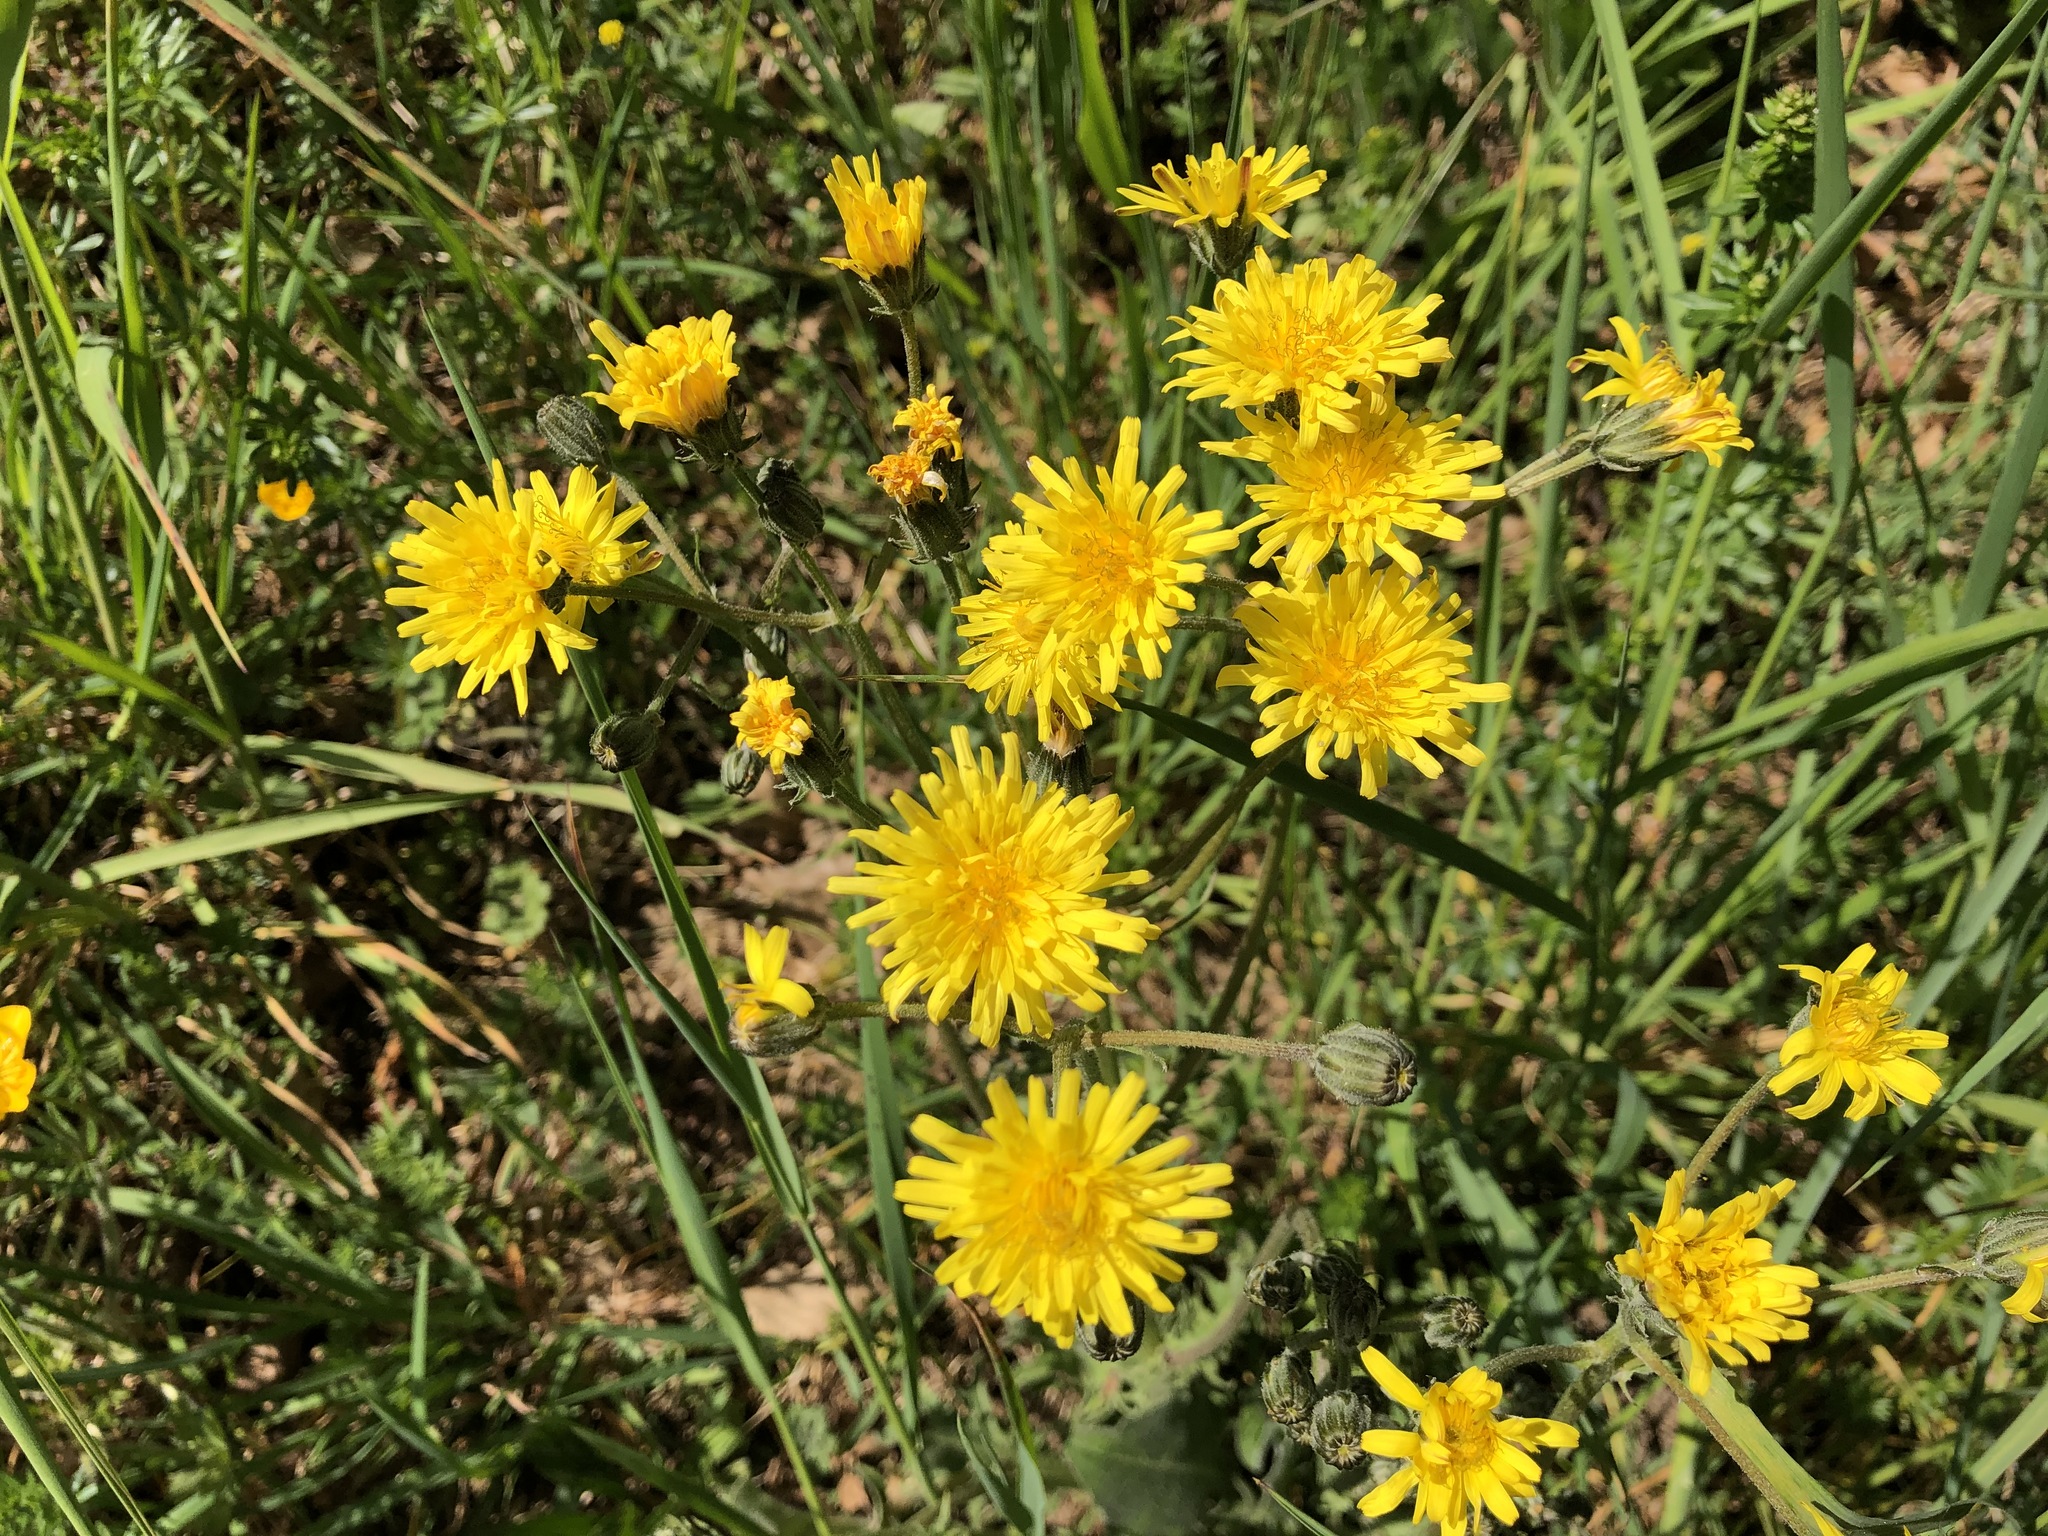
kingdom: Plantae
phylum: Tracheophyta
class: Magnoliopsida
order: Asterales
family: Asteraceae
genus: Crepis
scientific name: Crepis biennis
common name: Rough hawk's-beard
